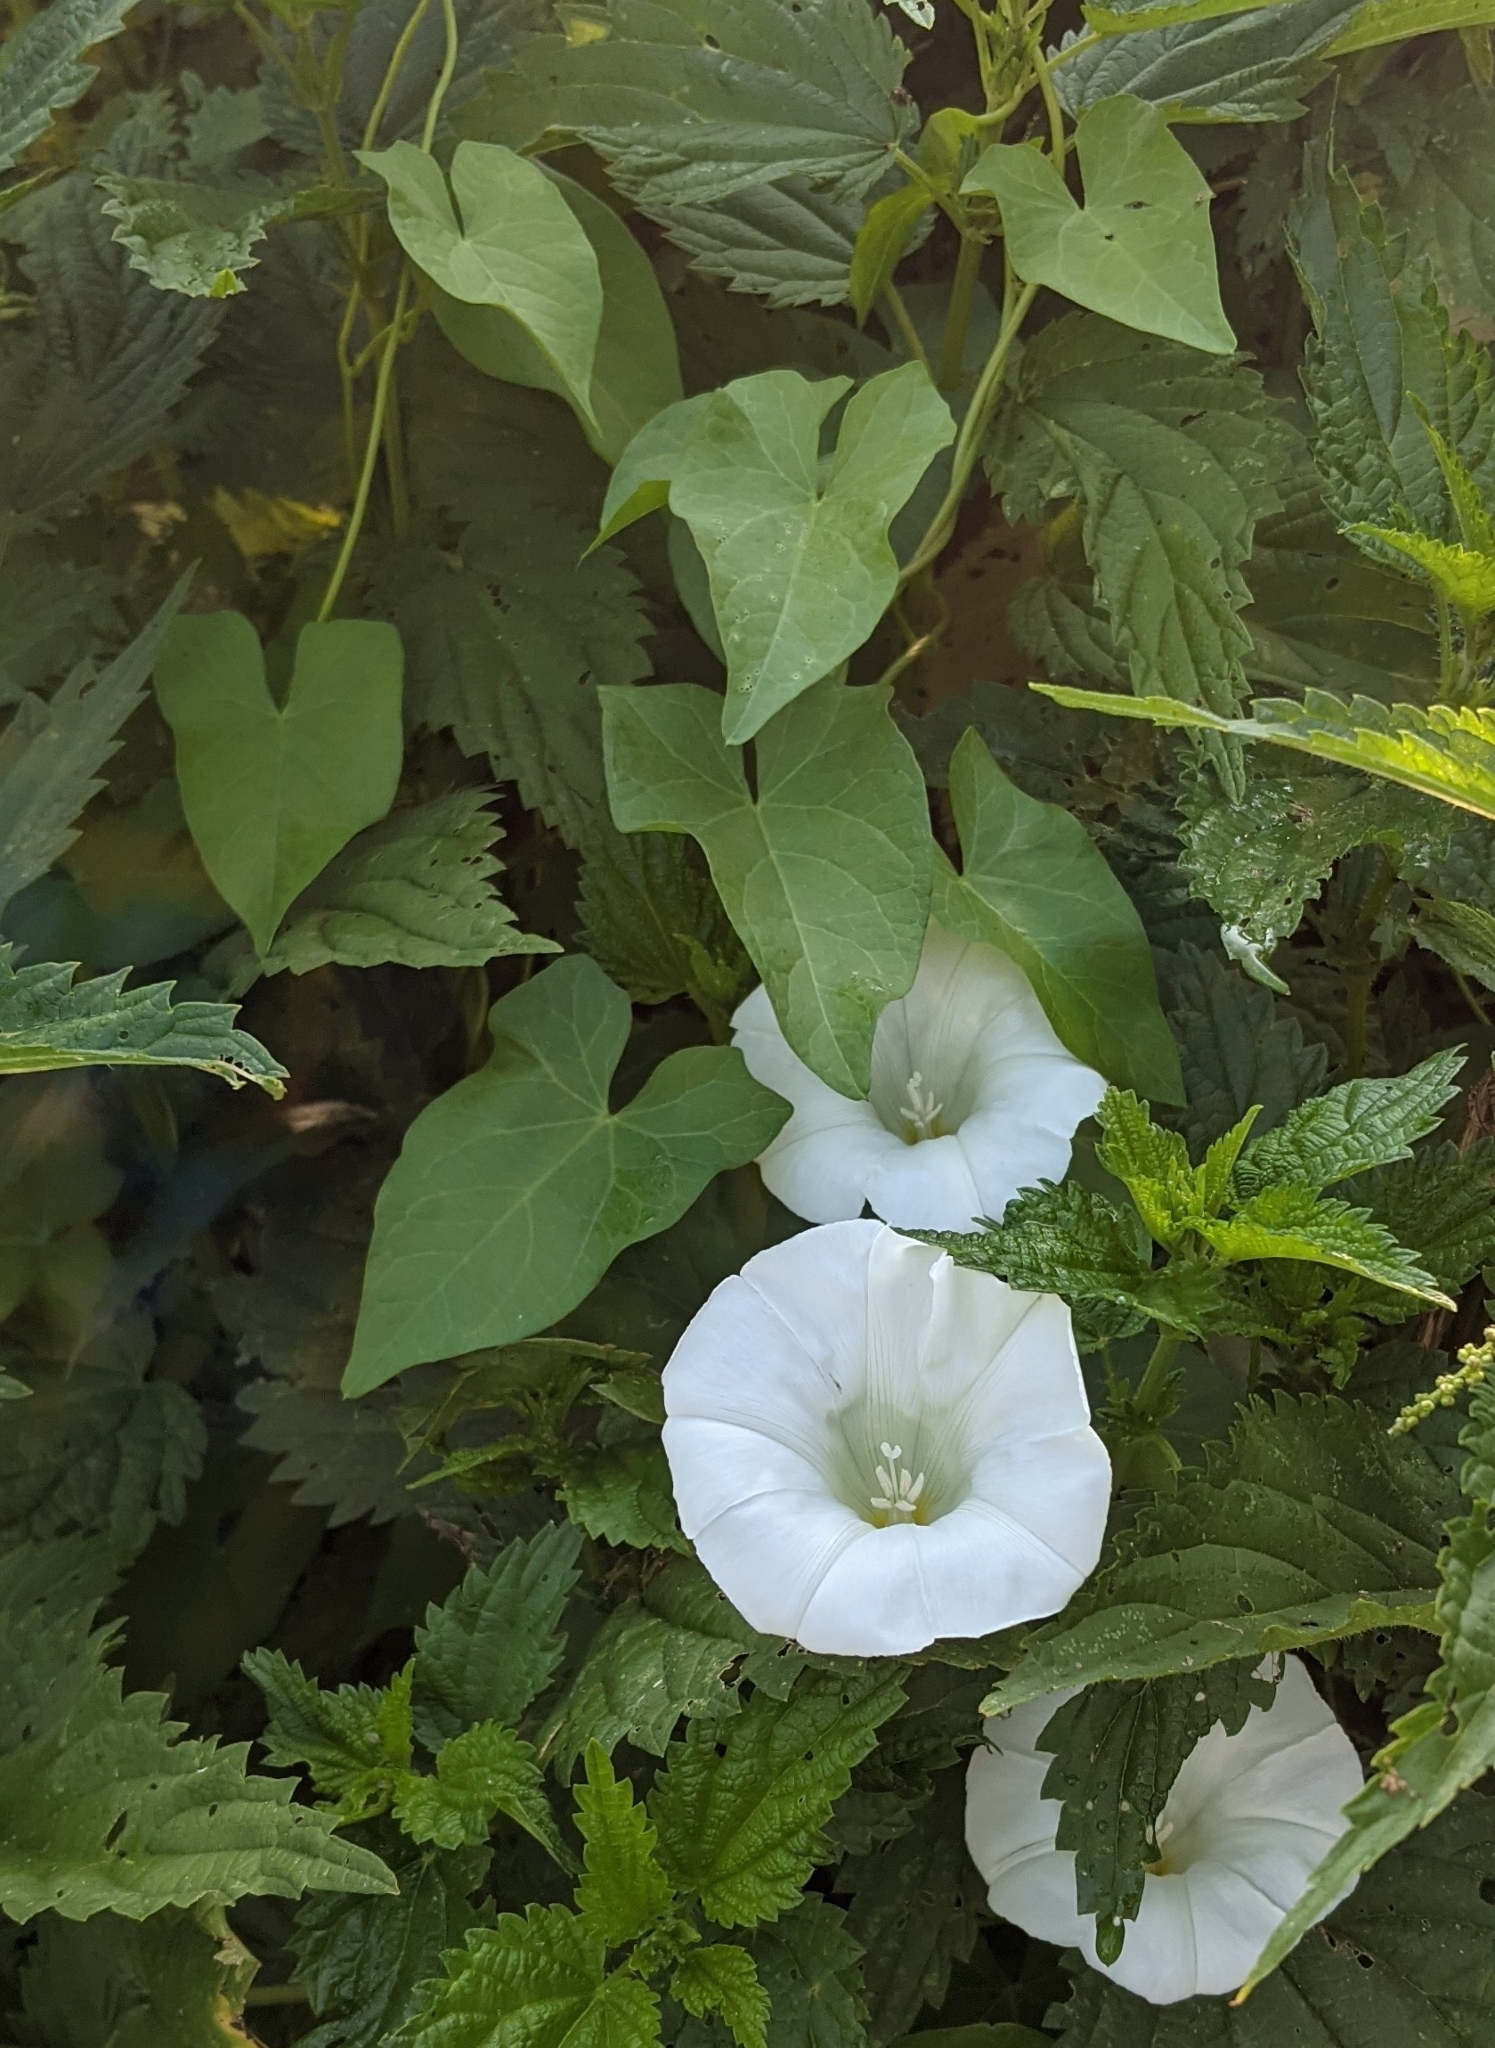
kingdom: Plantae
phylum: Tracheophyta
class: Magnoliopsida
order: Solanales
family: Convolvulaceae
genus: Calystegia
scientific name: Calystegia sepium
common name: Hedge bindweed
